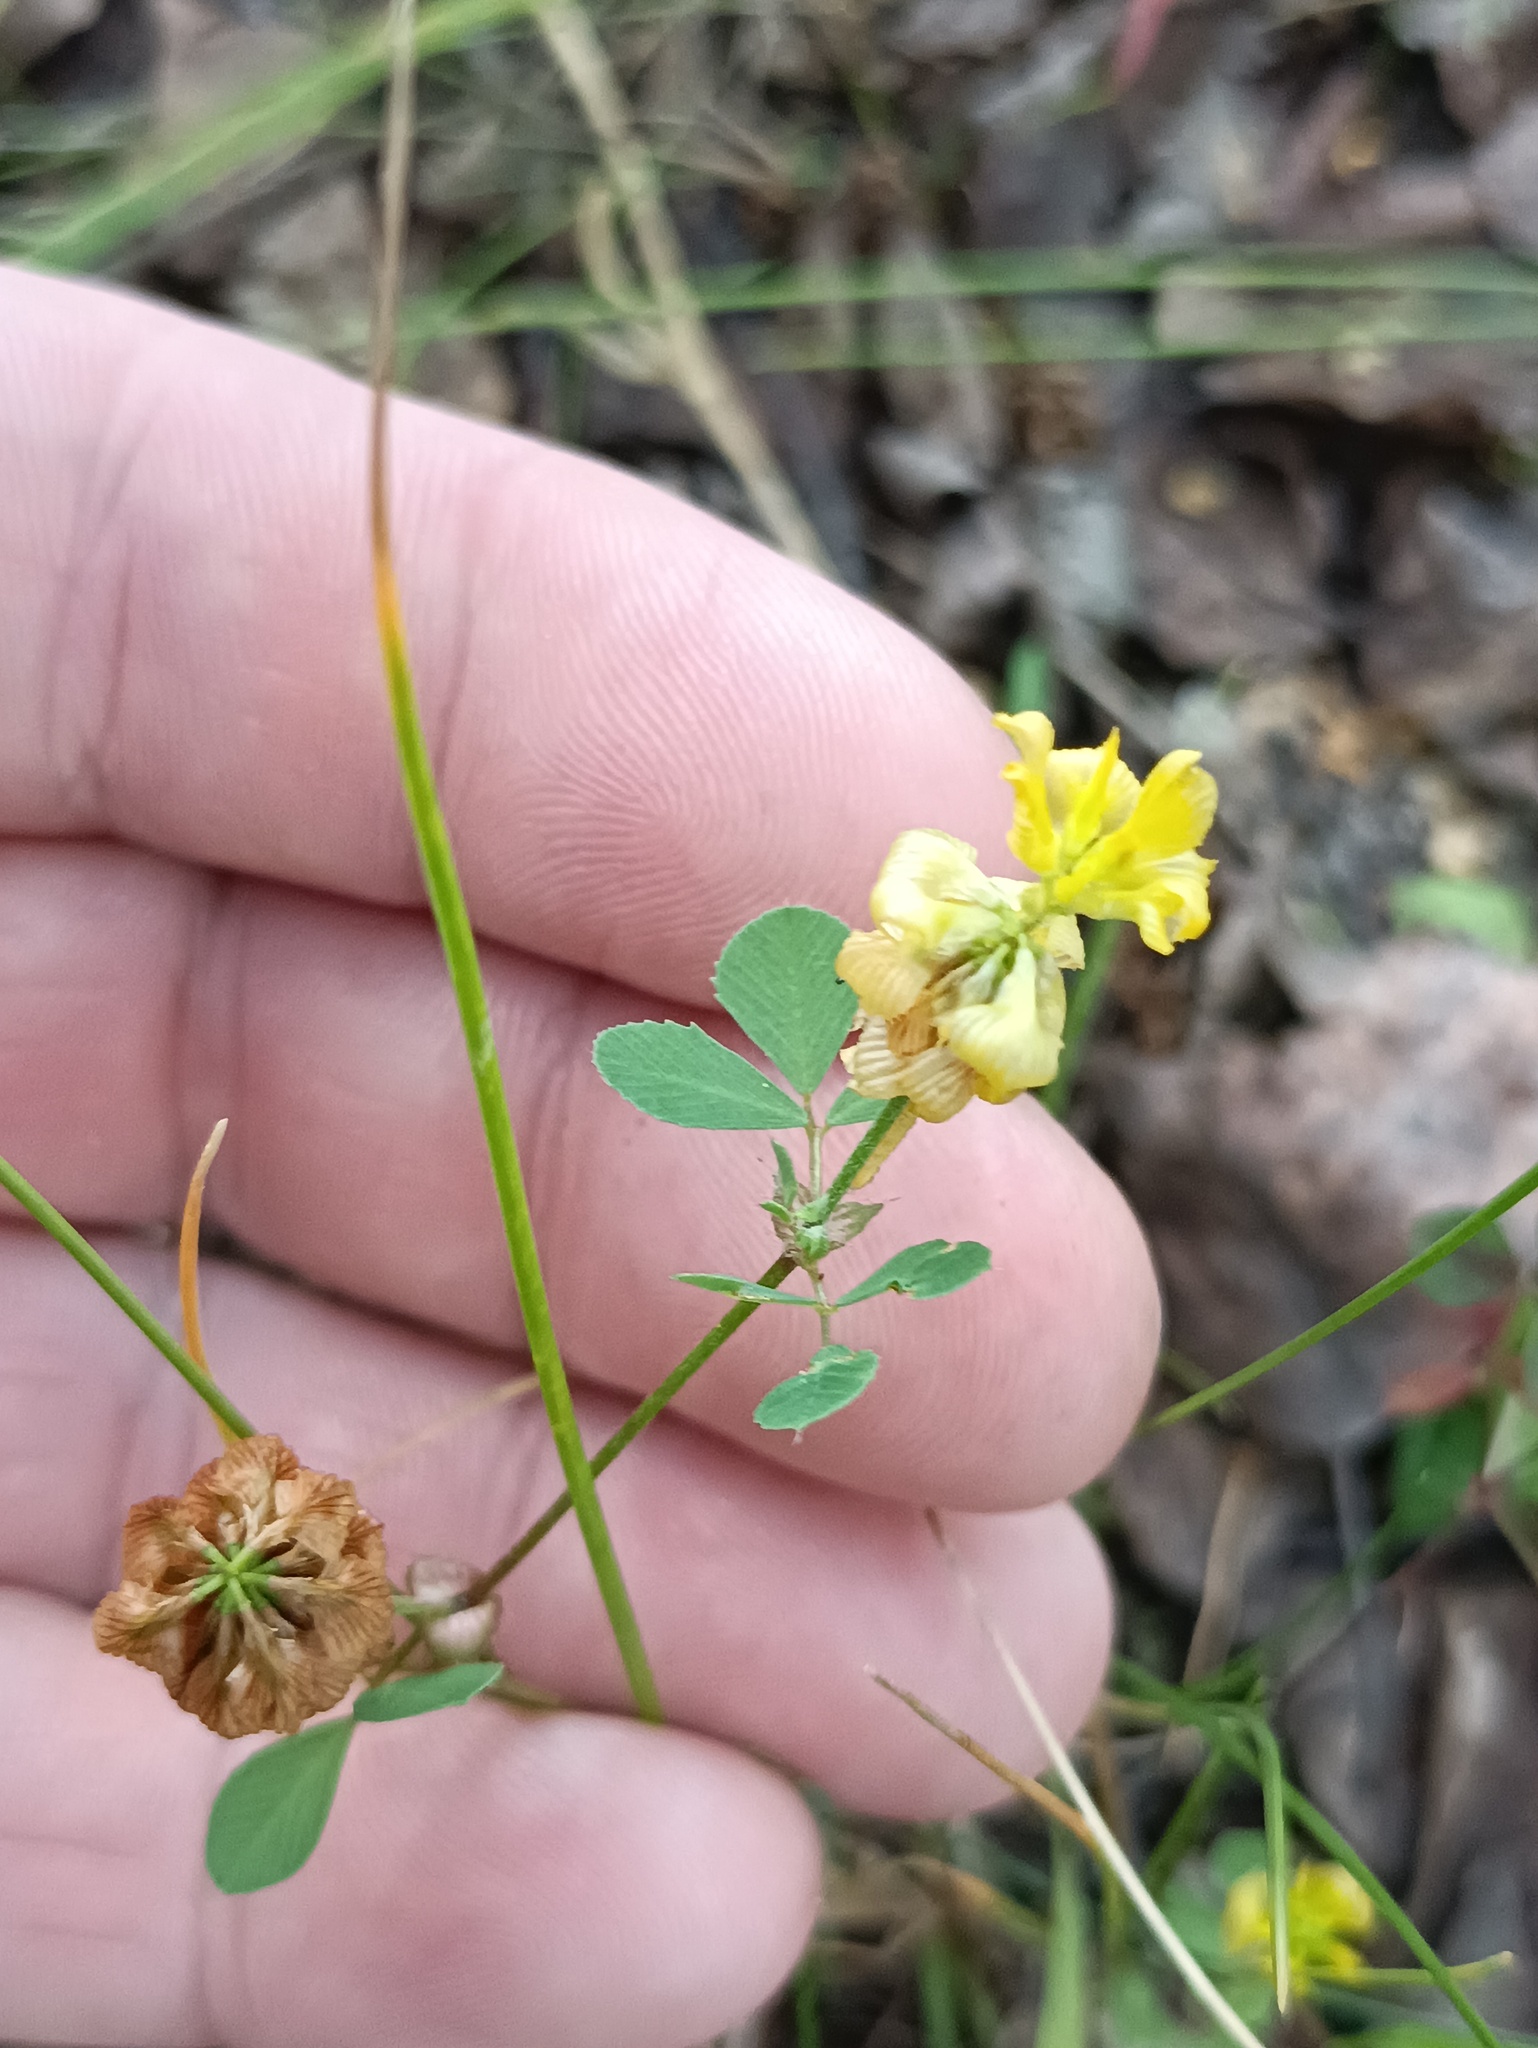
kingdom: Plantae
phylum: Tracheophyta
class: Magnoliopsida
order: Fabales
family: Fabaceae
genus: Trifolium
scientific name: Trifolium campestre
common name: Field clover
